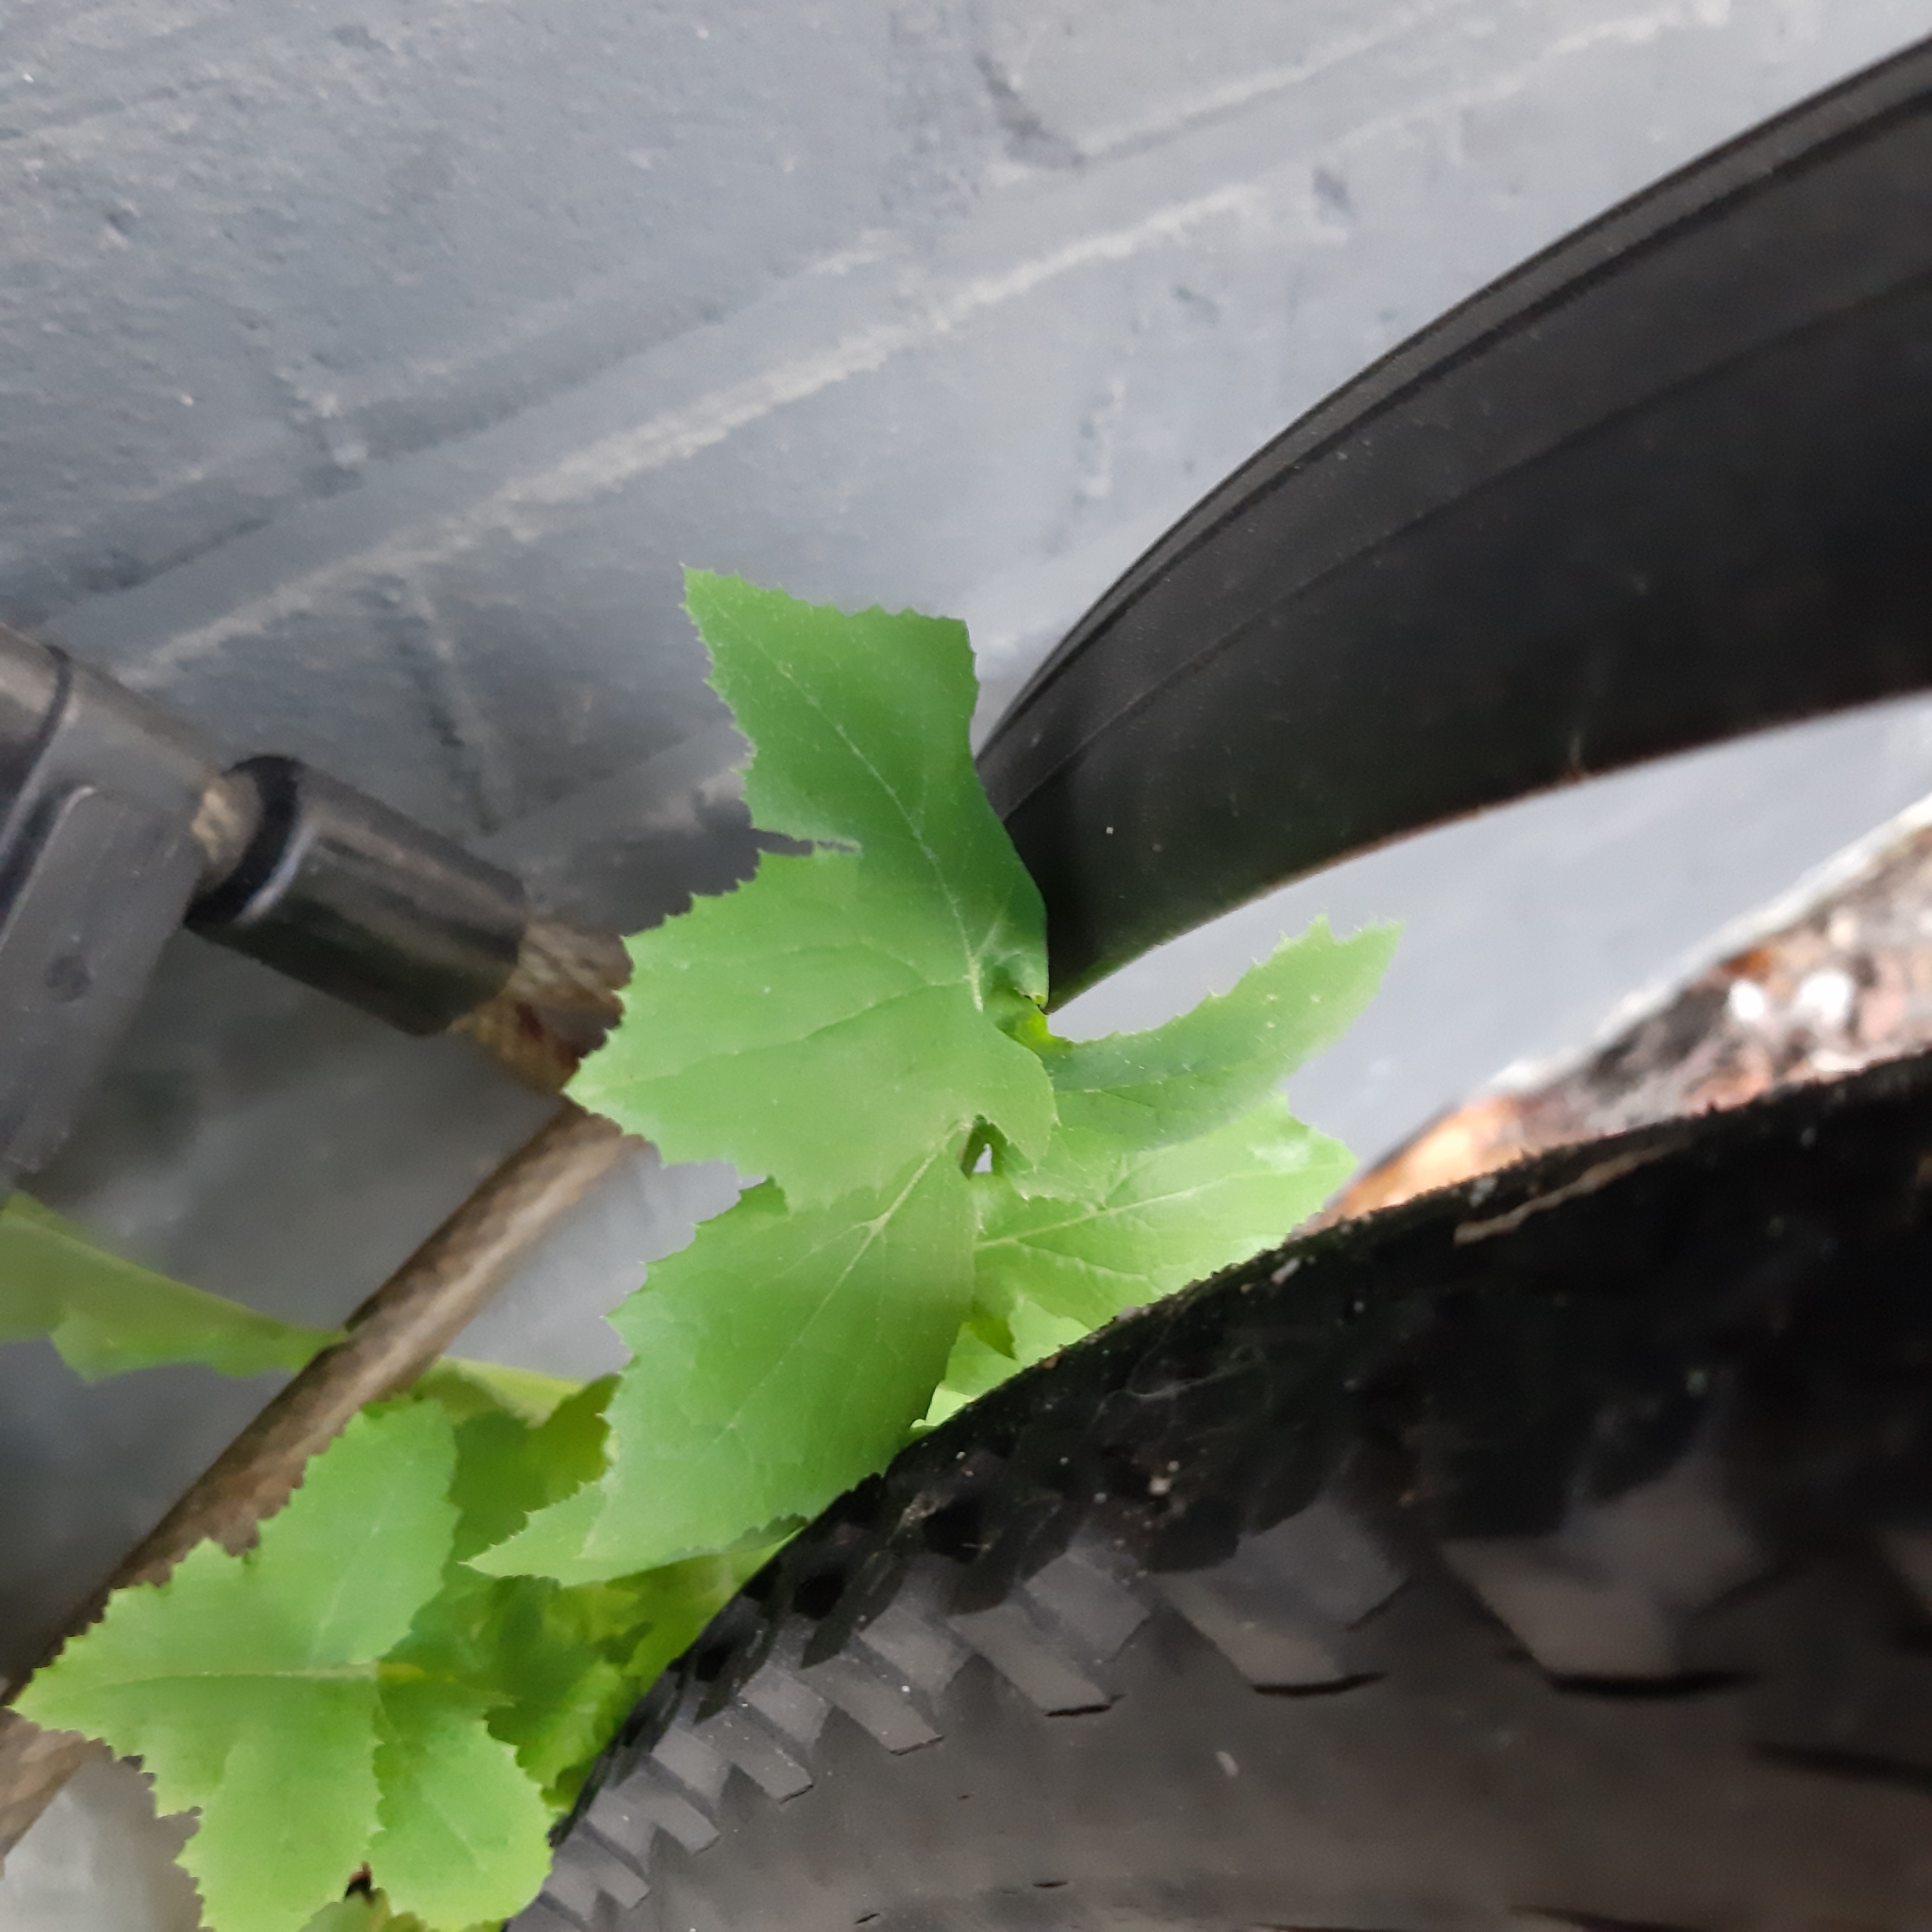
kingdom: Plantae
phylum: Tracheophyta
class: Magnoliopsida
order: Asterales
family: Asteraceae
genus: Sonchus
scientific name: Sonchus oleraceus
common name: Common sowthistle
